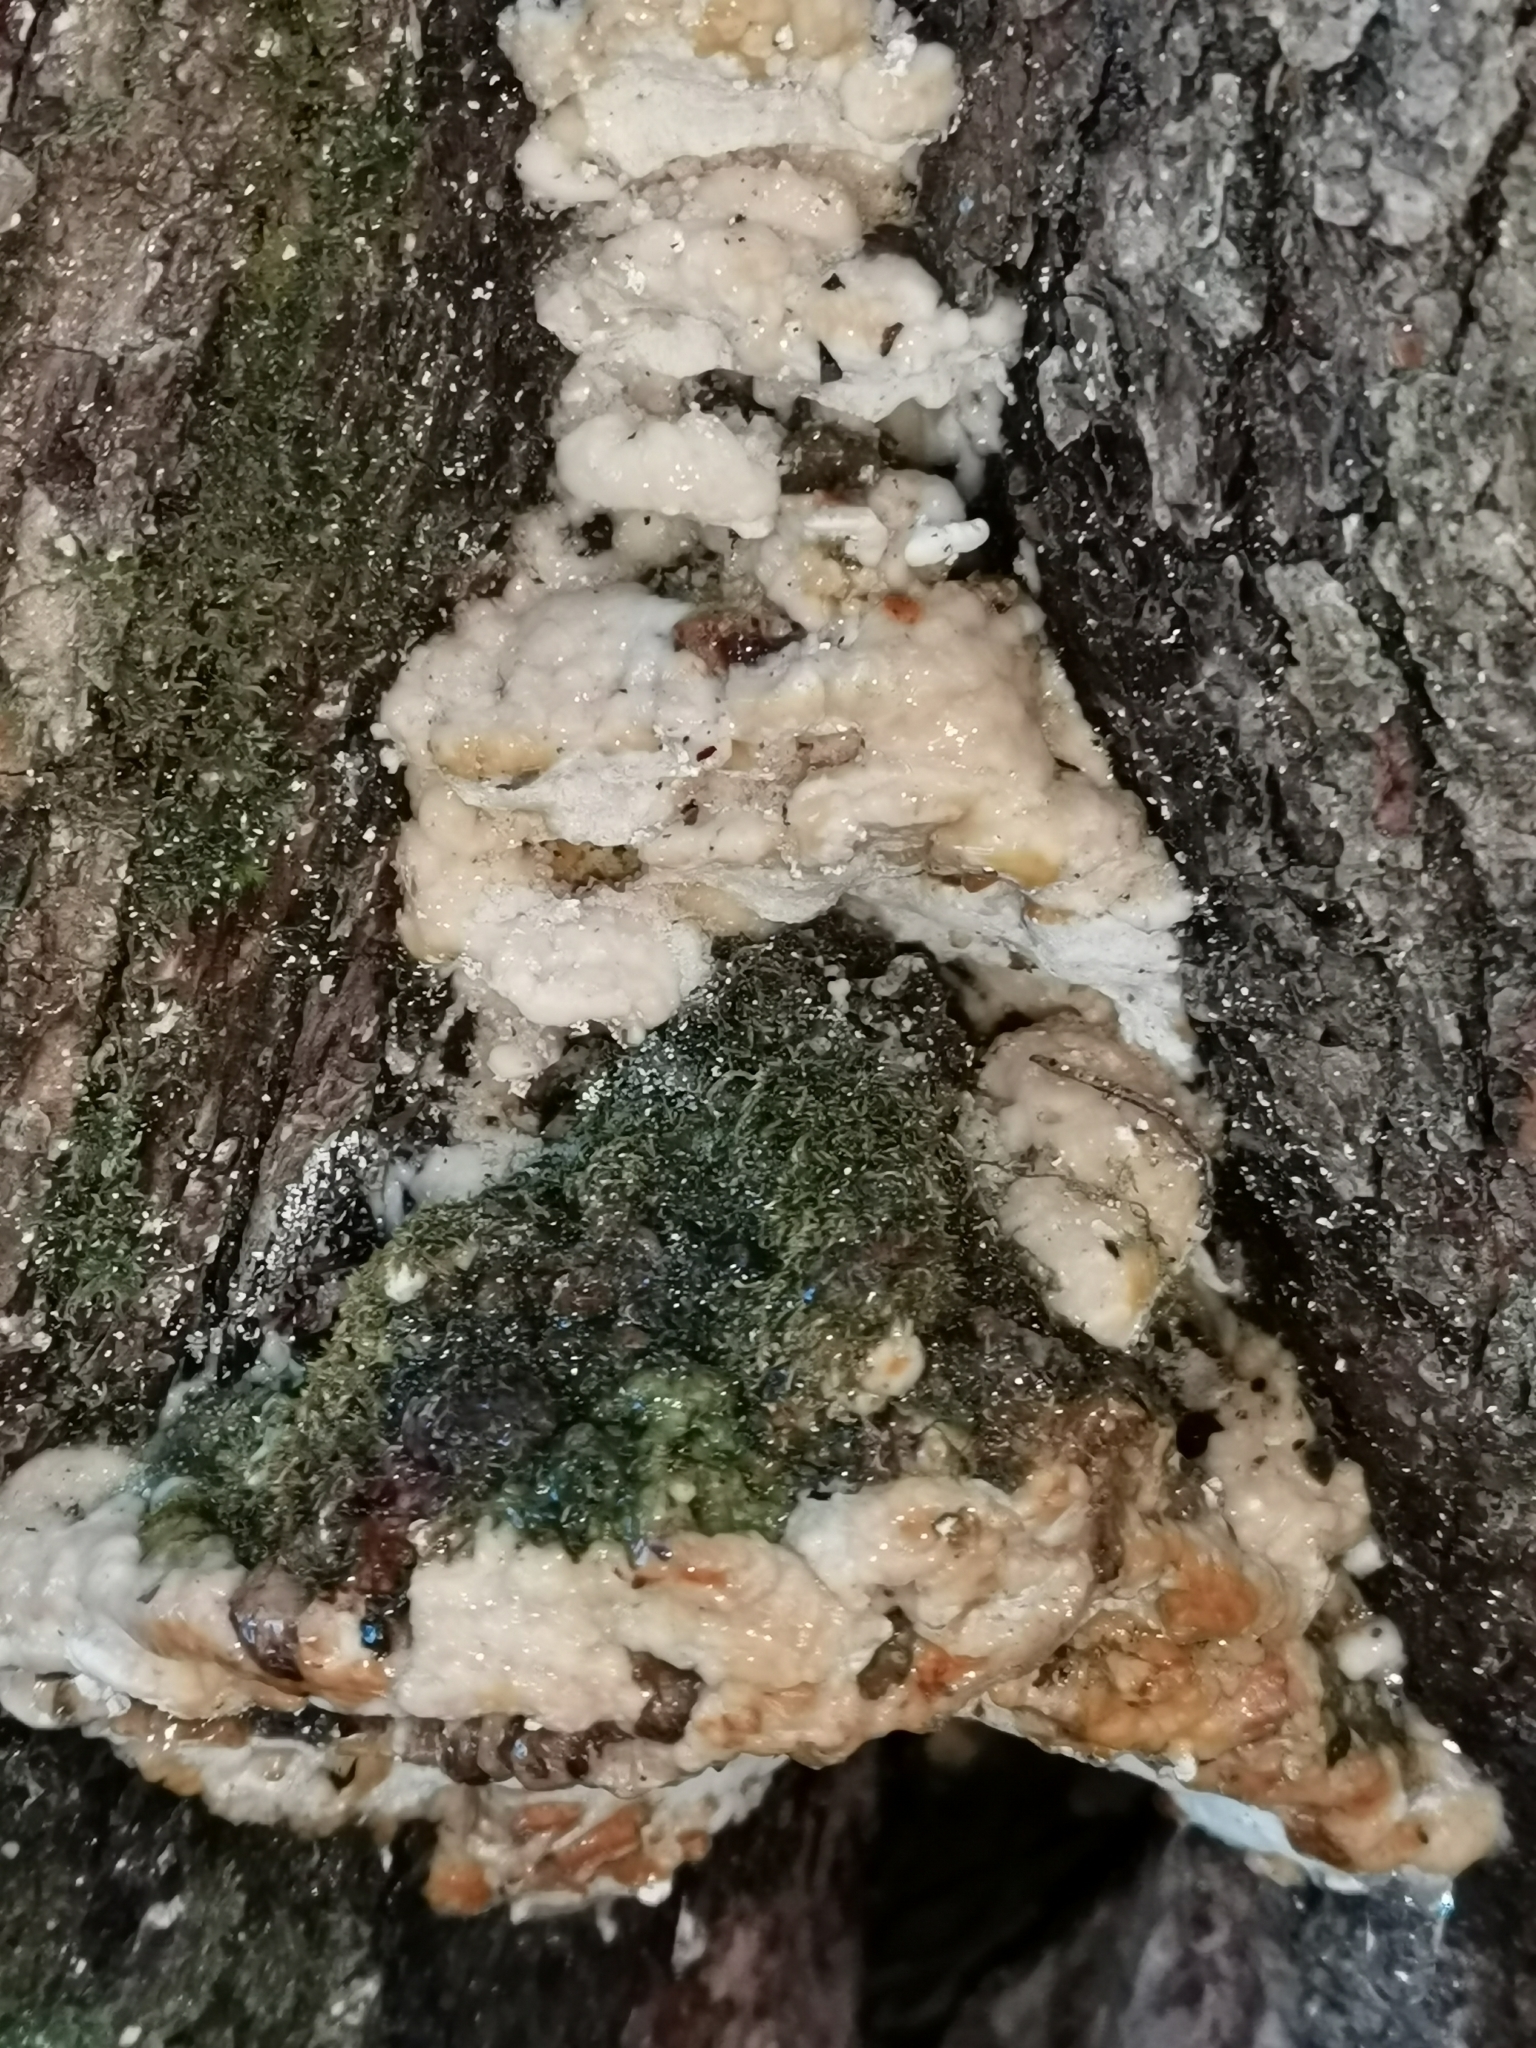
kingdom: Fungi
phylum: Basidiomycota
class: Agaricomycetes
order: Hymenochaetales
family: Oxyporaceae
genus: Oxyporus
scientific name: Oxyporus populinus
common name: Poplar bracket
